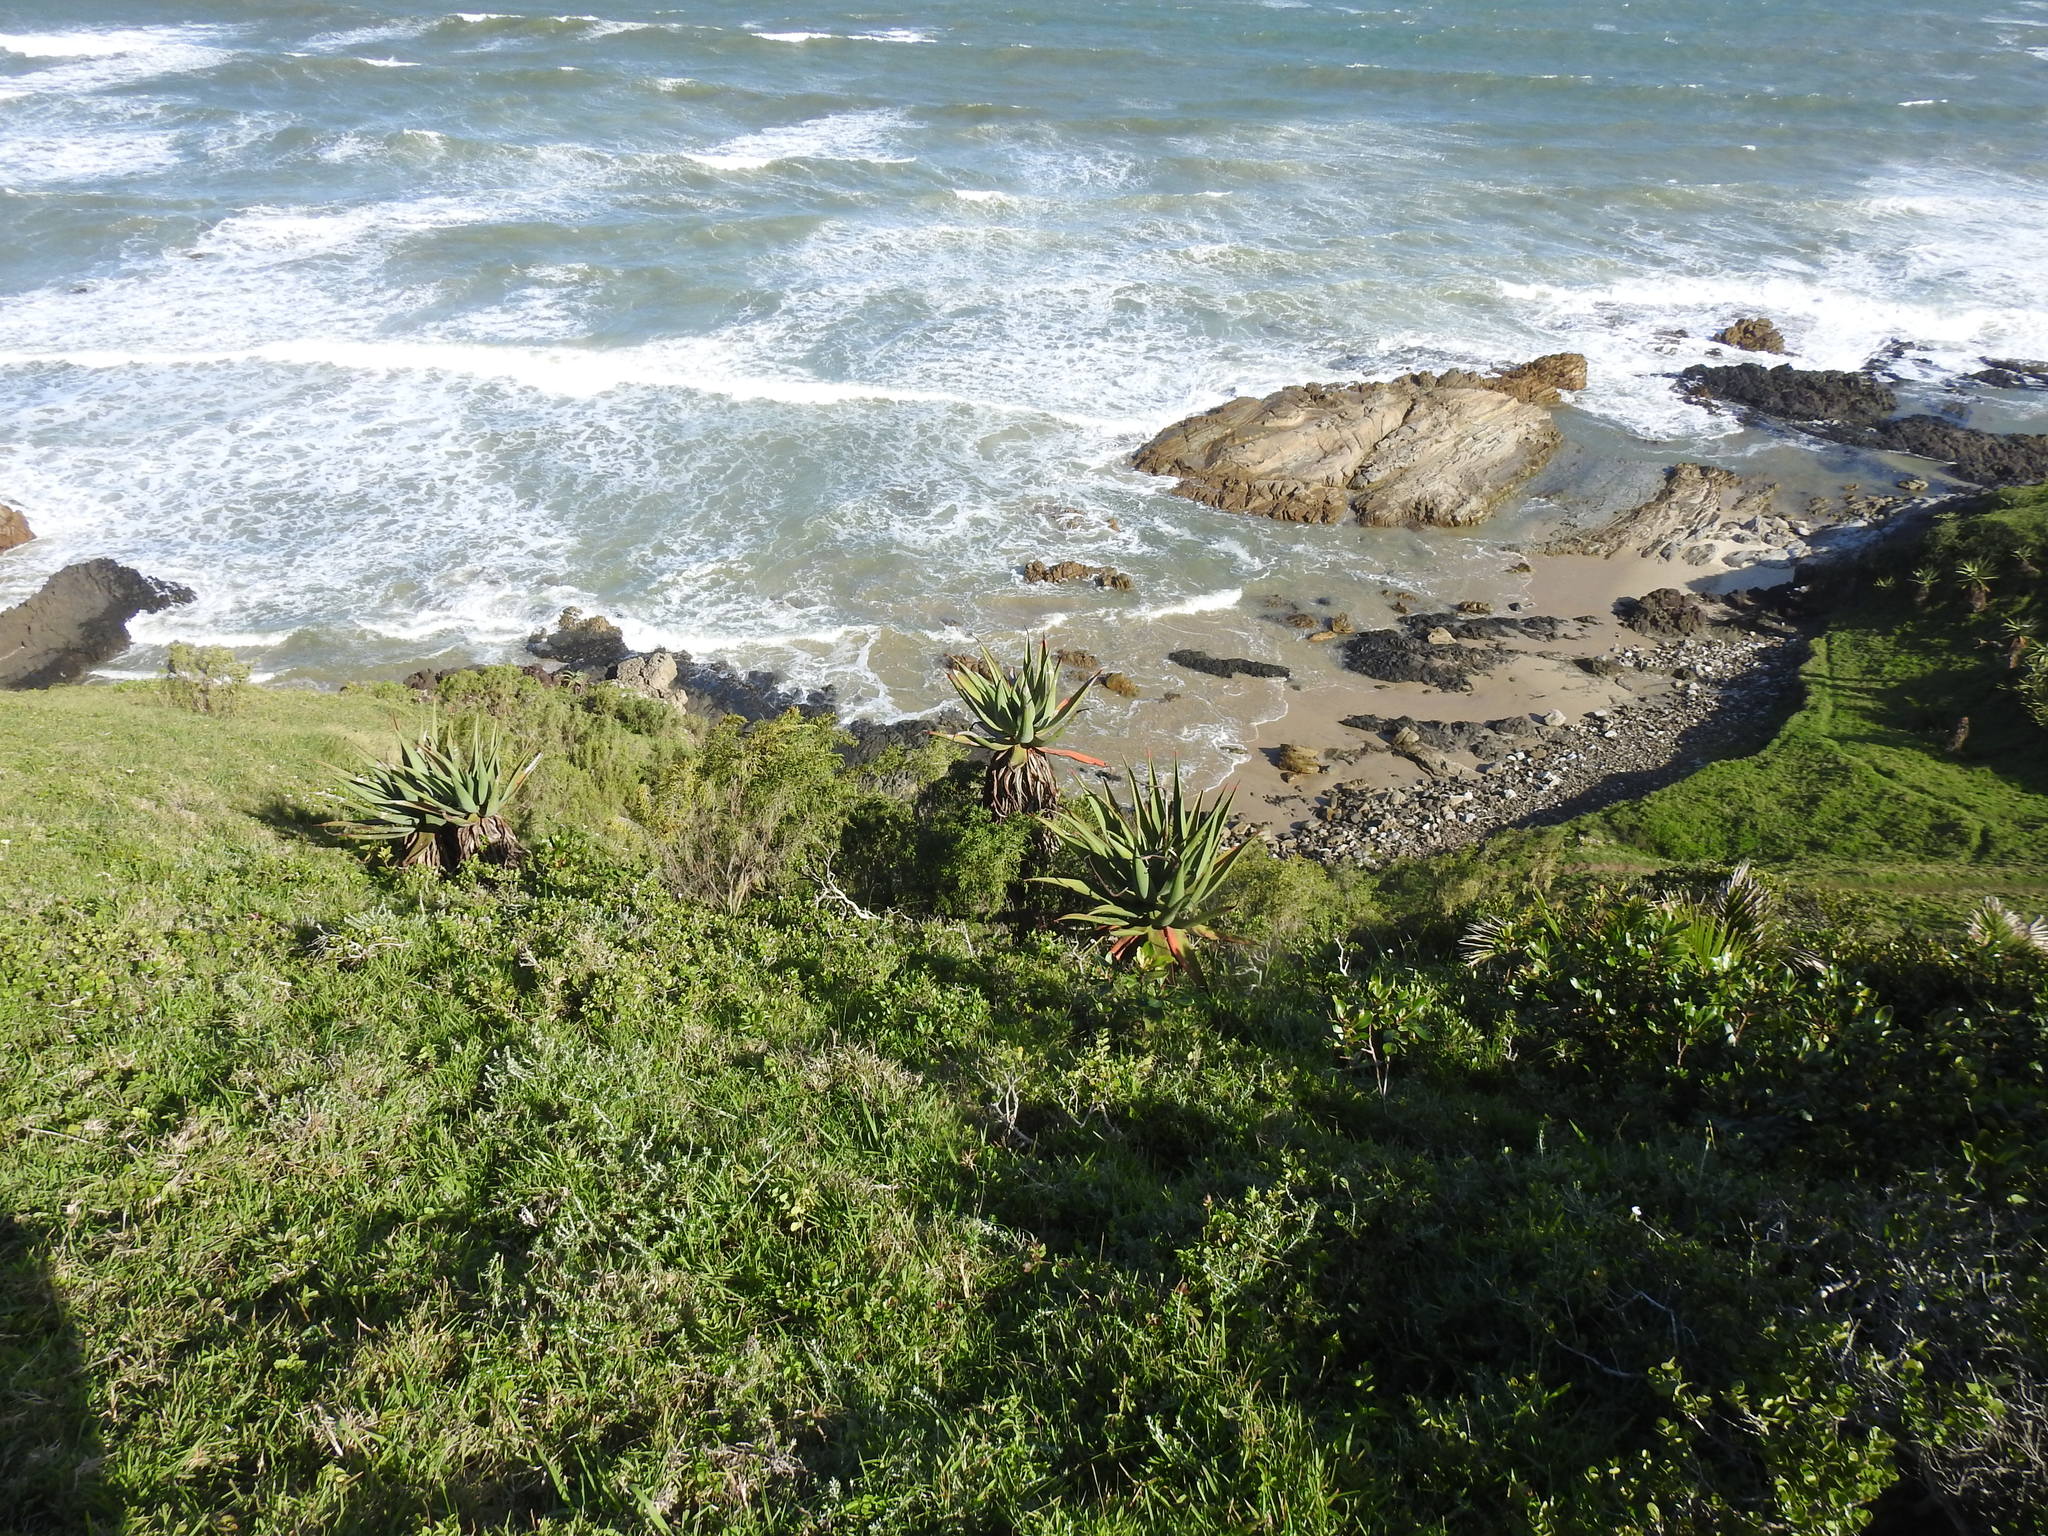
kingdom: Plantae
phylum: Tracheophyta
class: Liliopsida
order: Asparagales
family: Asphodelaceae
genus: Aloe
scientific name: Aloe ferox
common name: Bitter aloe
